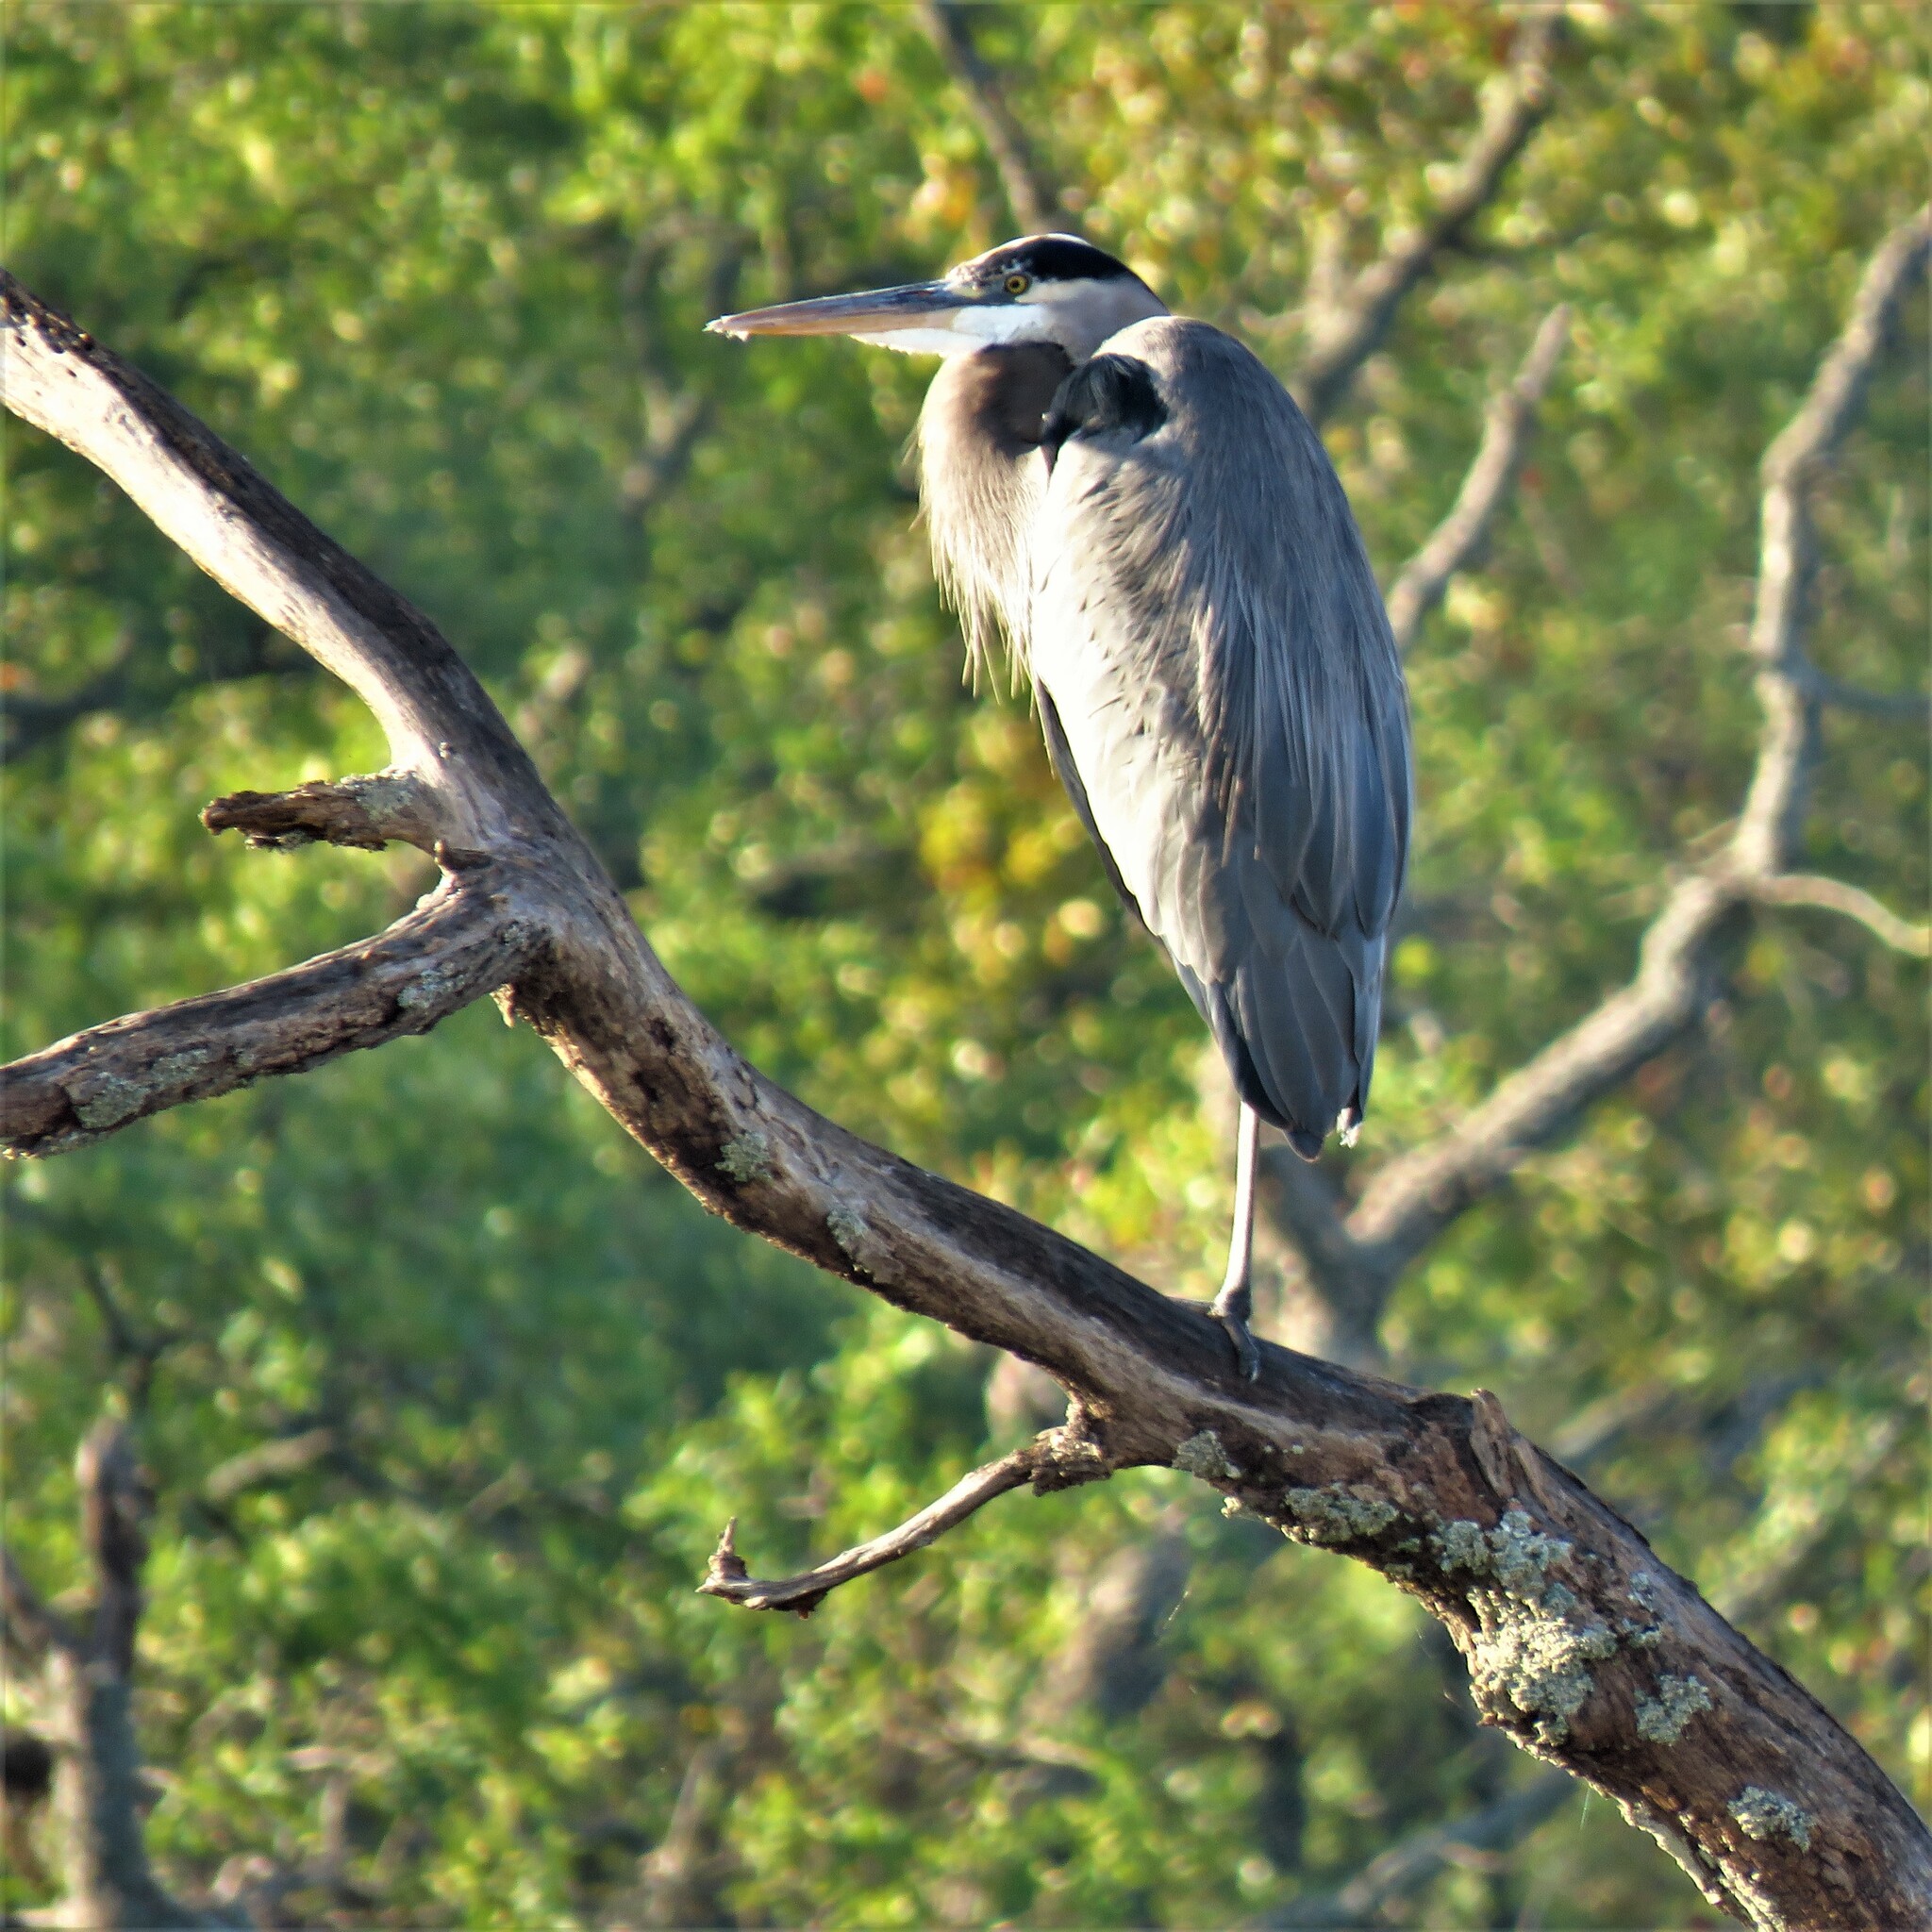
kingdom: Animalia
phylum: Chordata
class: Aves
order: Pelecaniformes
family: Ardeidae
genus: Ardea
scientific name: Ardea herodias
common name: Great blue heron
